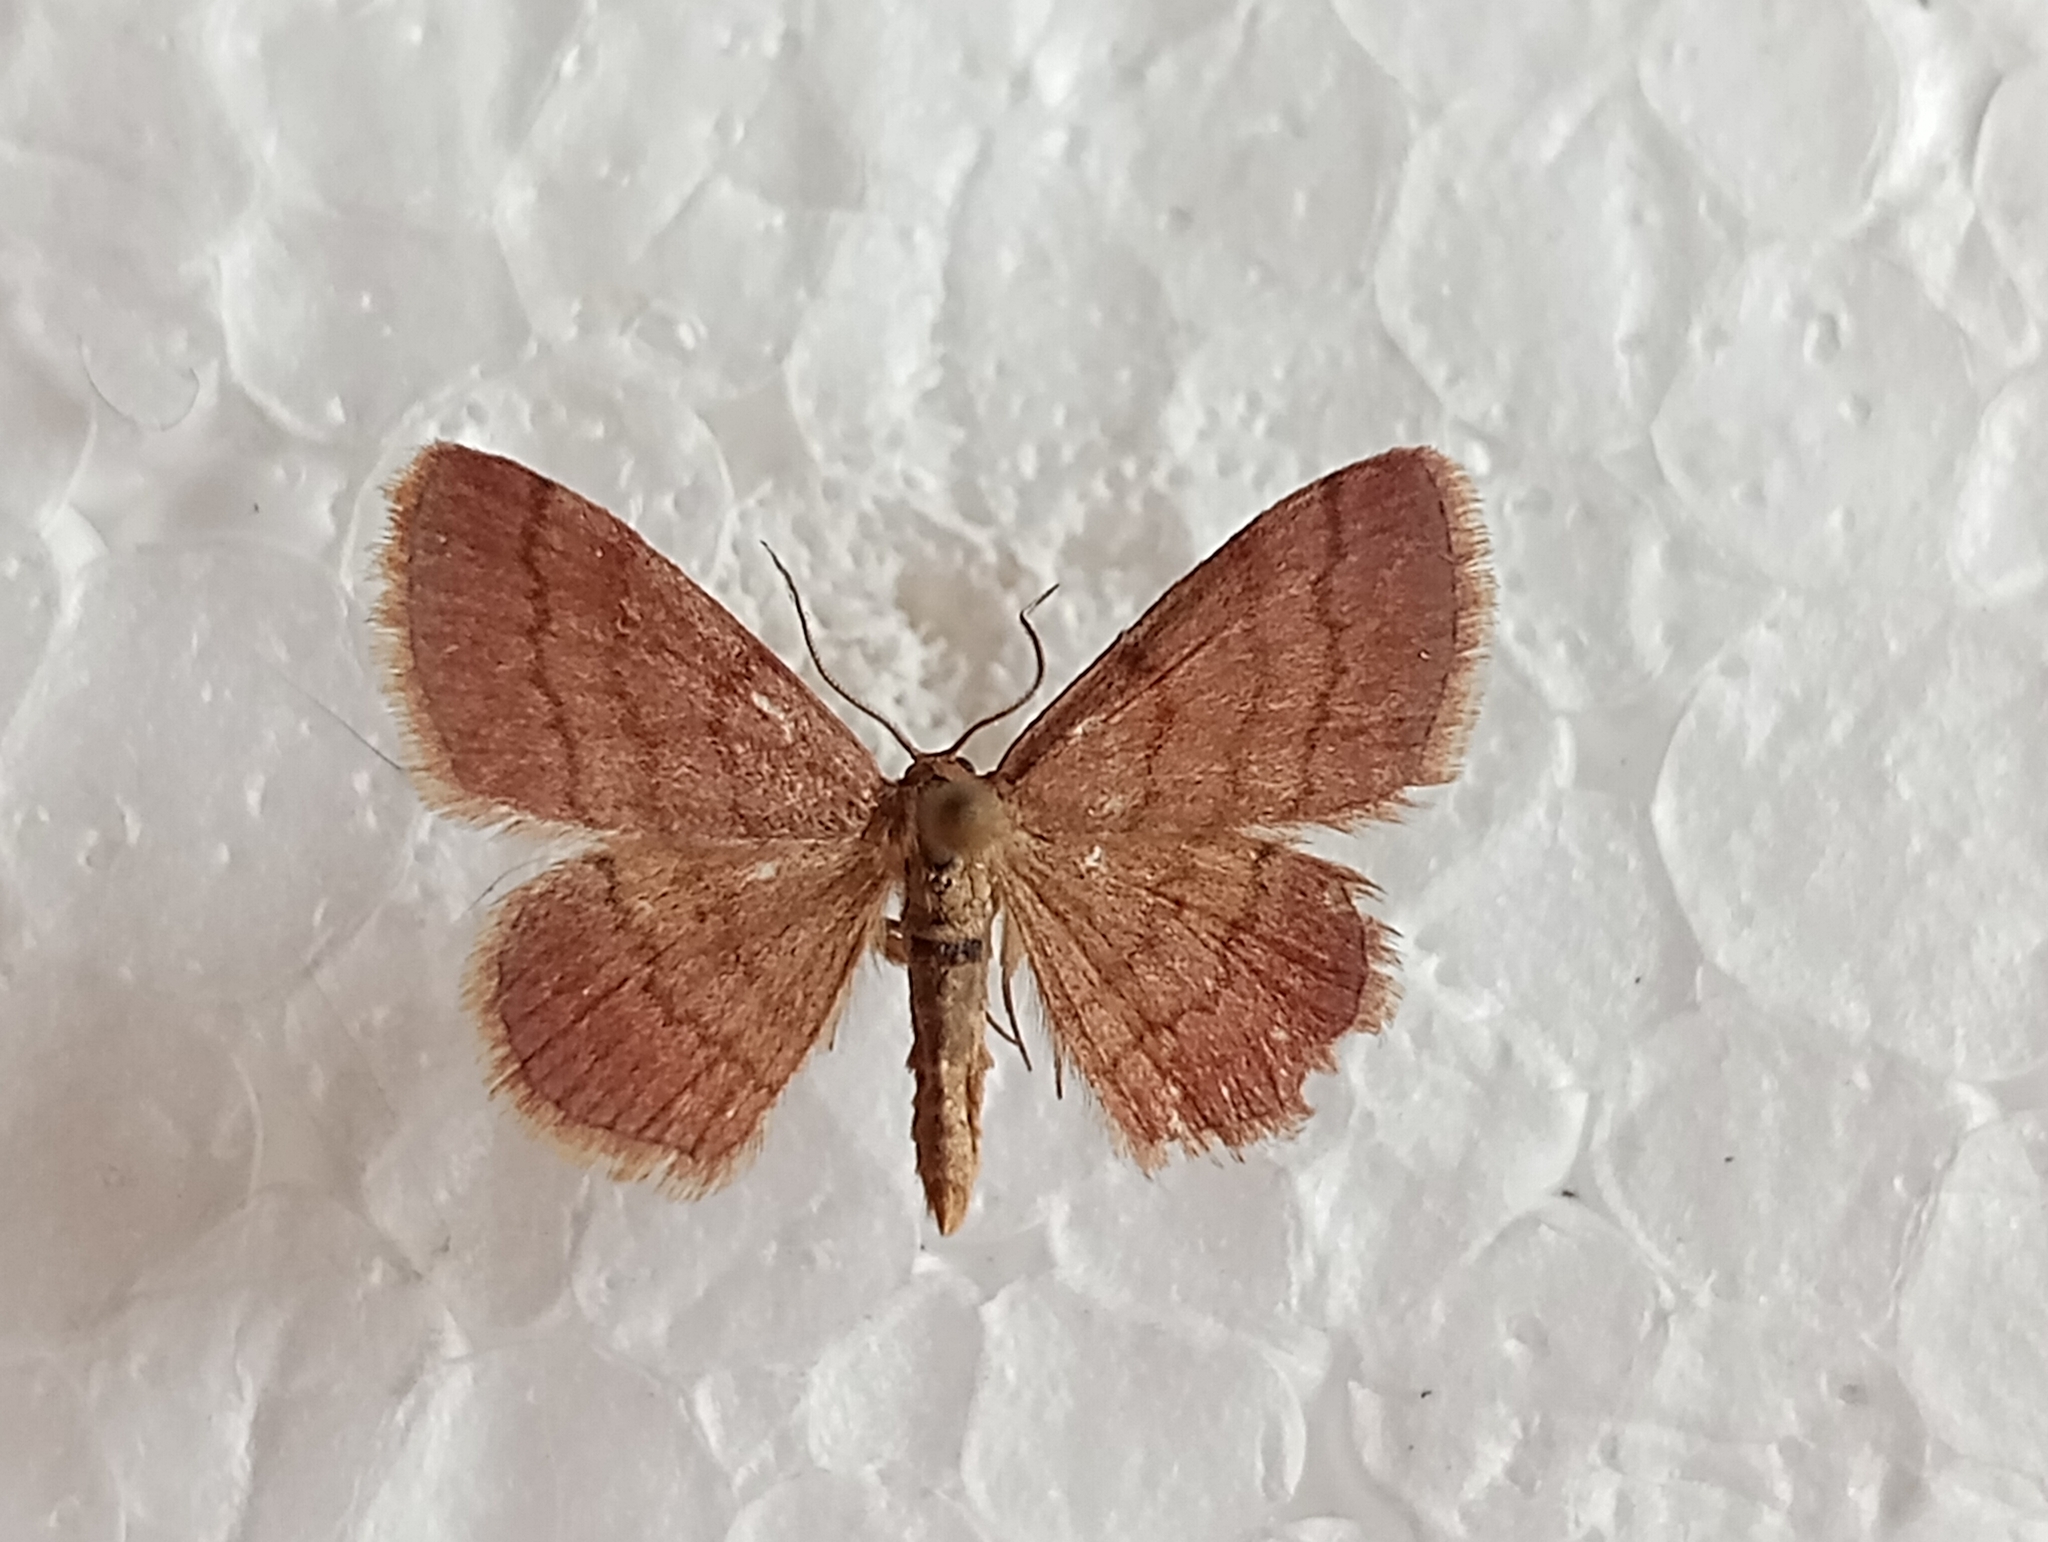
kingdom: Animalia
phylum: Arthropoda
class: Insecta
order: Lepidoptera
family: Geometridae
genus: Scopula
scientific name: Scopula rubiginata
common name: Tawny wave
